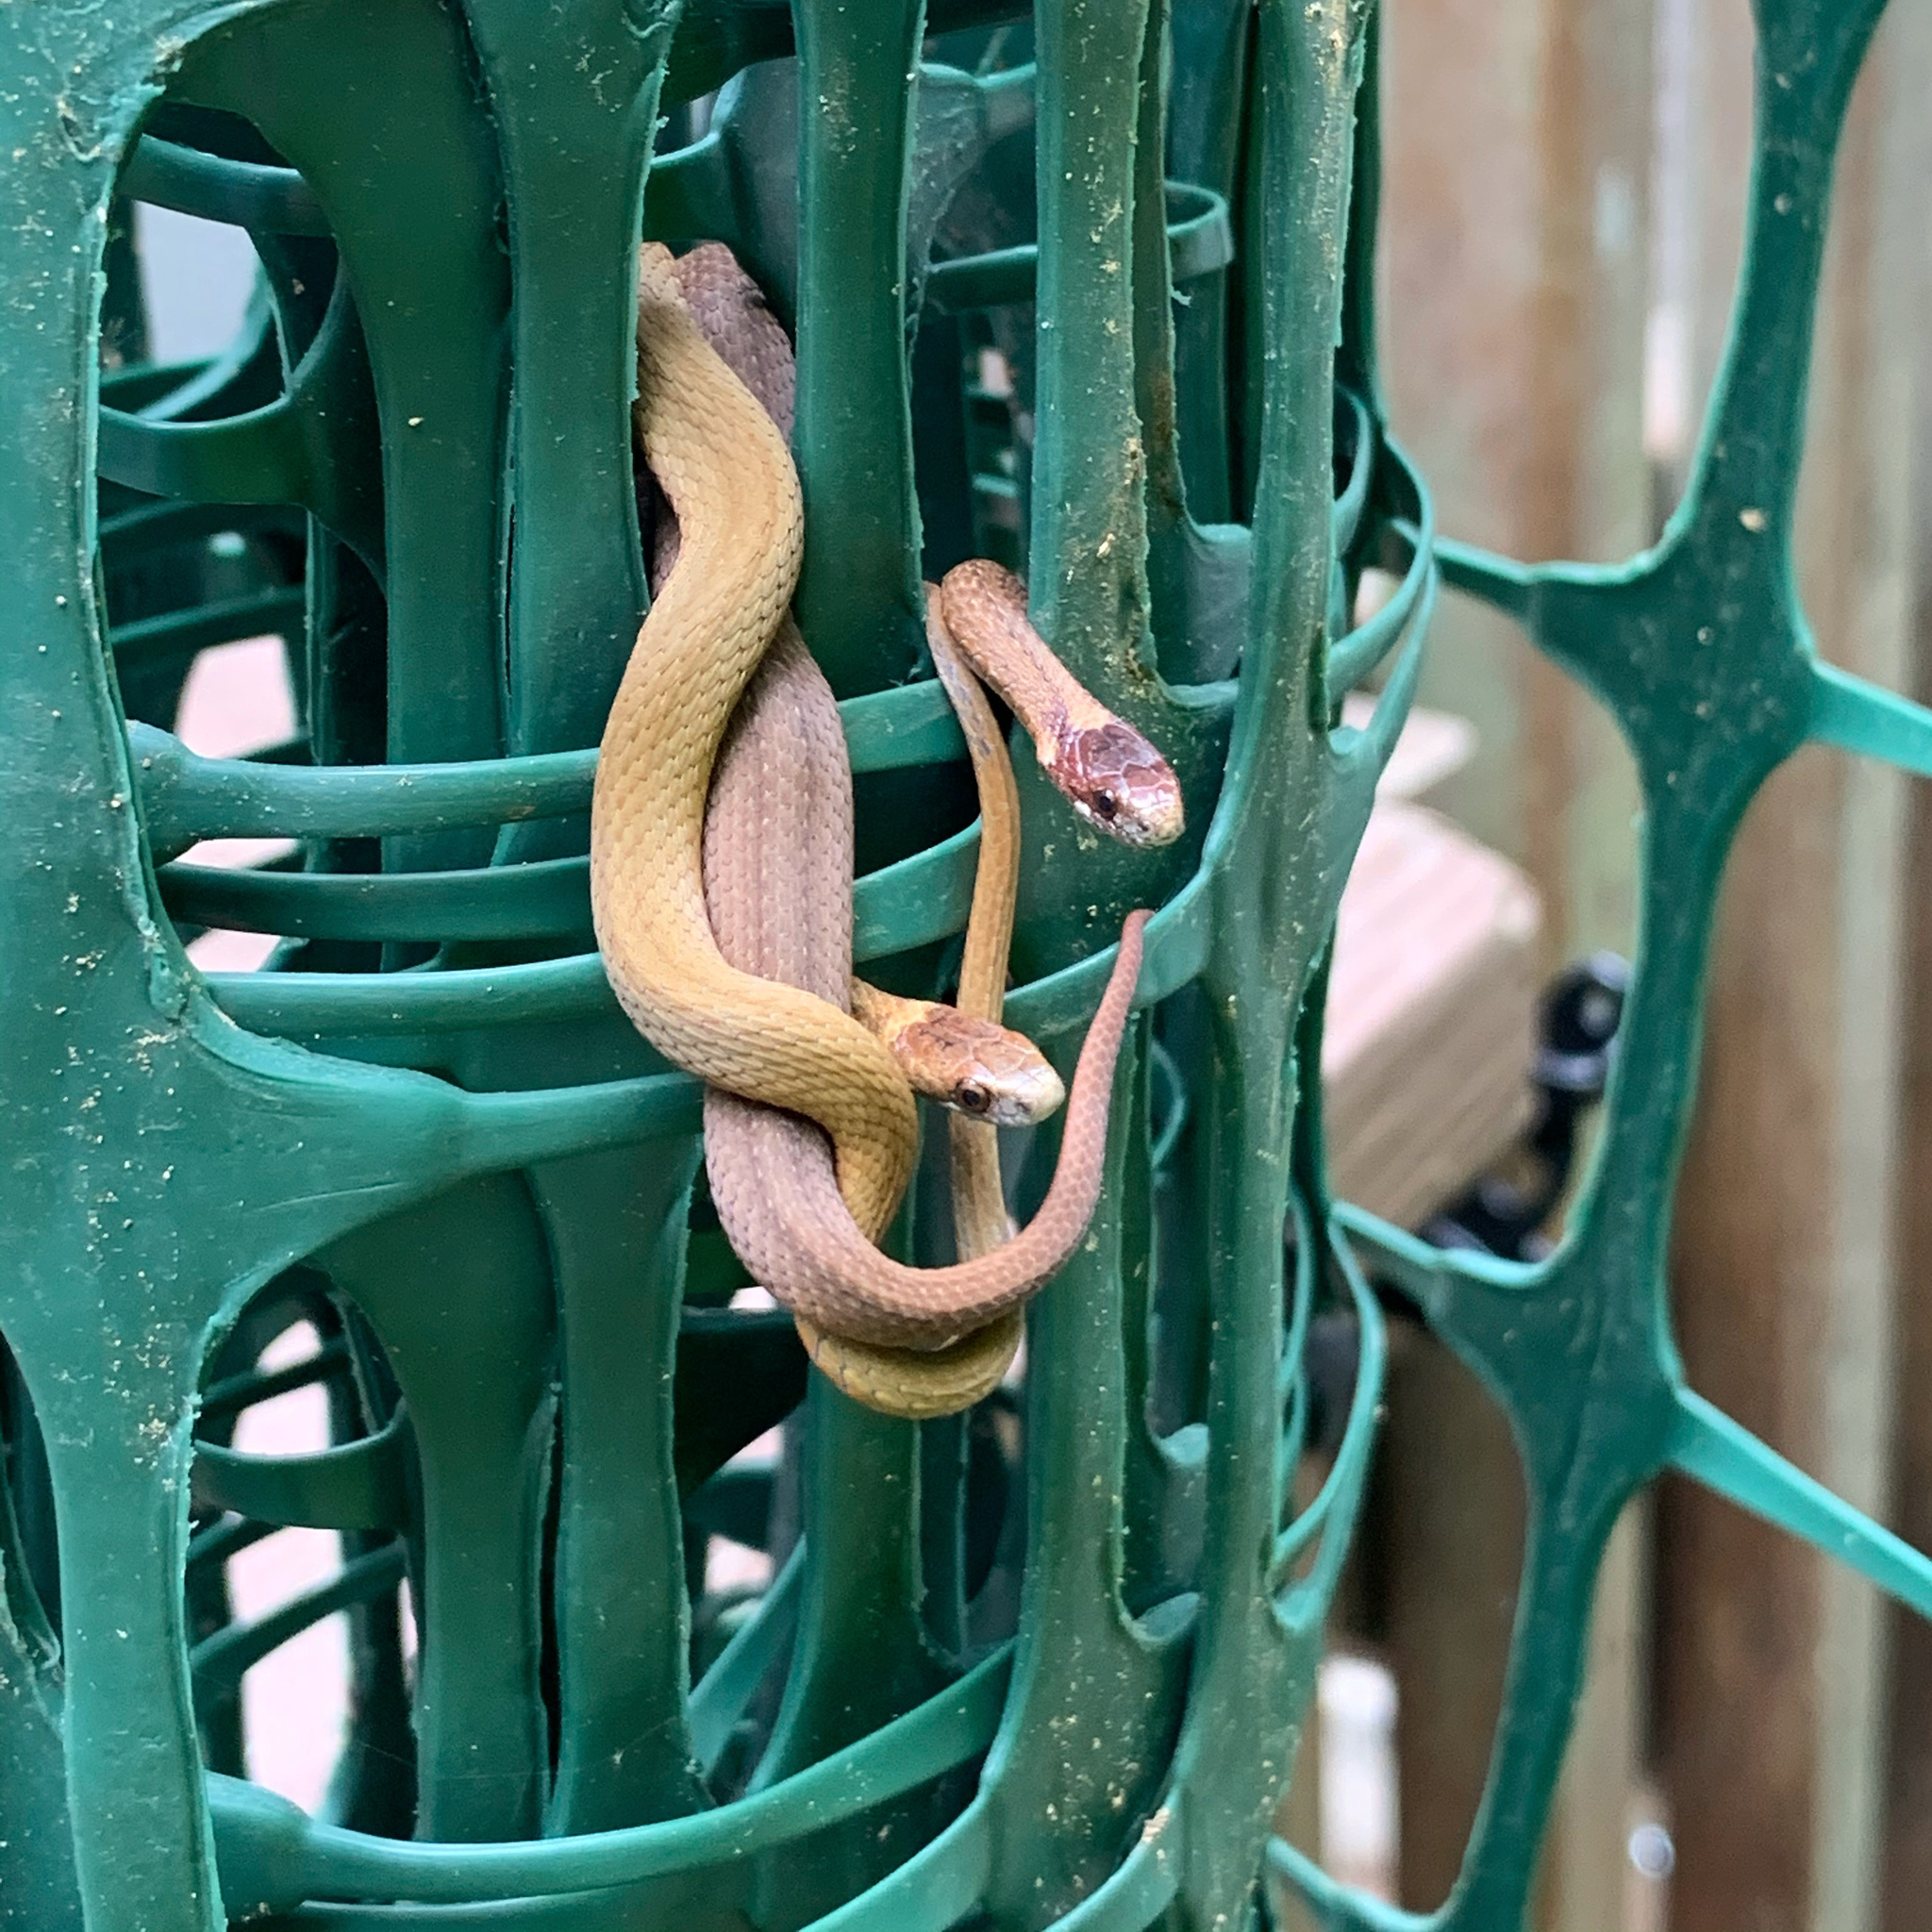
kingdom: Animalia
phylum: Chordata
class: Squamata
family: Colubridae
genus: Storeria
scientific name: Storeria occipitomaculata
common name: Redbelly snake
